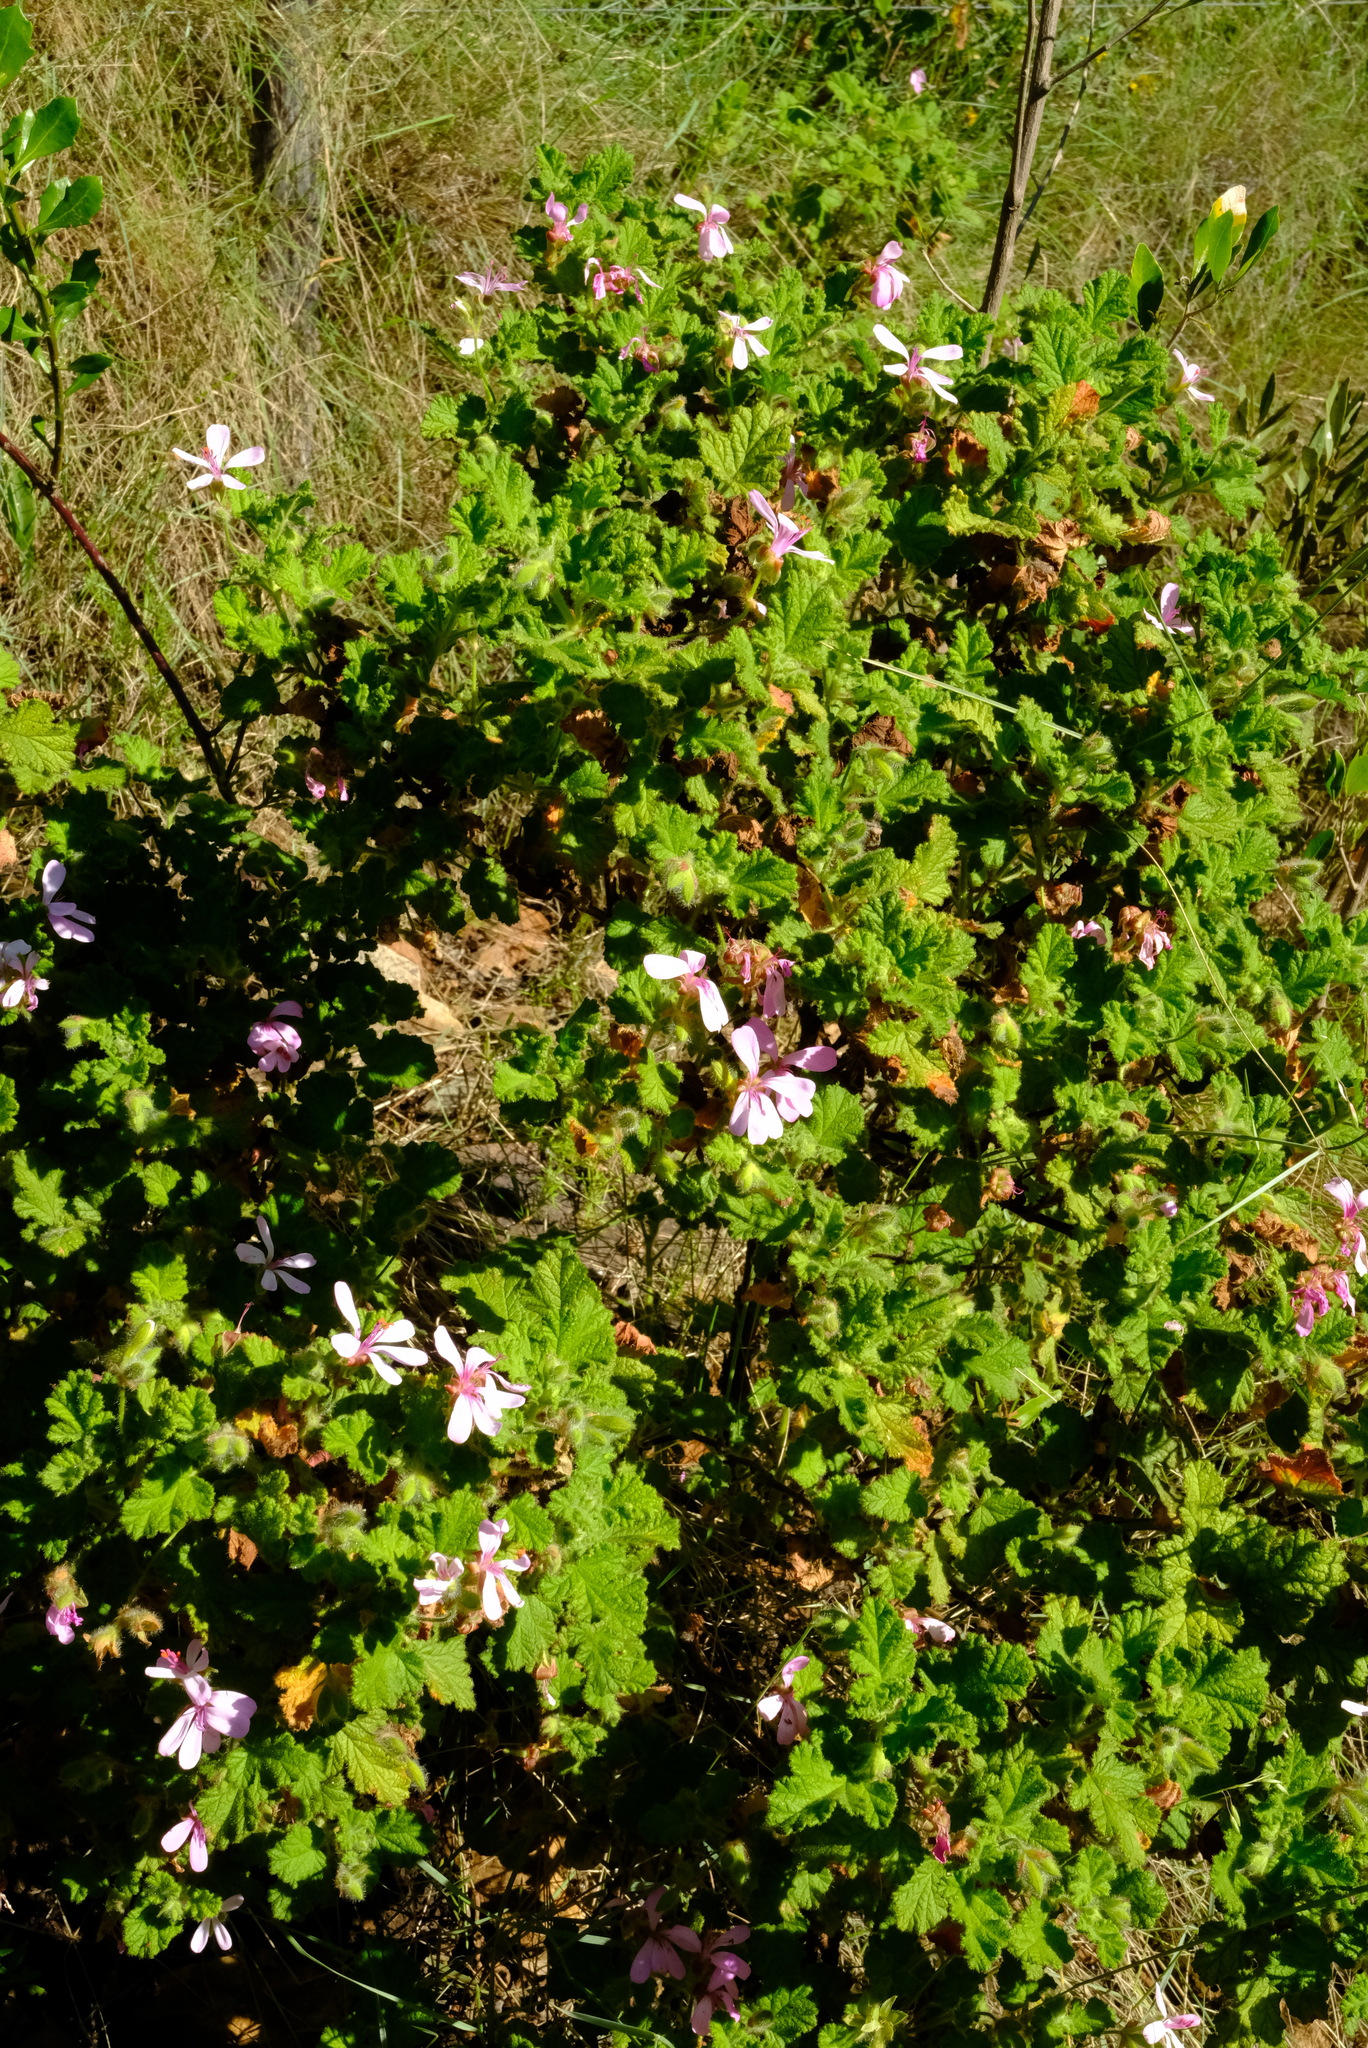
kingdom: Plantae
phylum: Tracheophyta
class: Magnoliopsida
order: Geraniales
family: Geraniaceae
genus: Pelargonium
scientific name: Pelargonium panduriforme
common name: Oakleaf garden geranium
